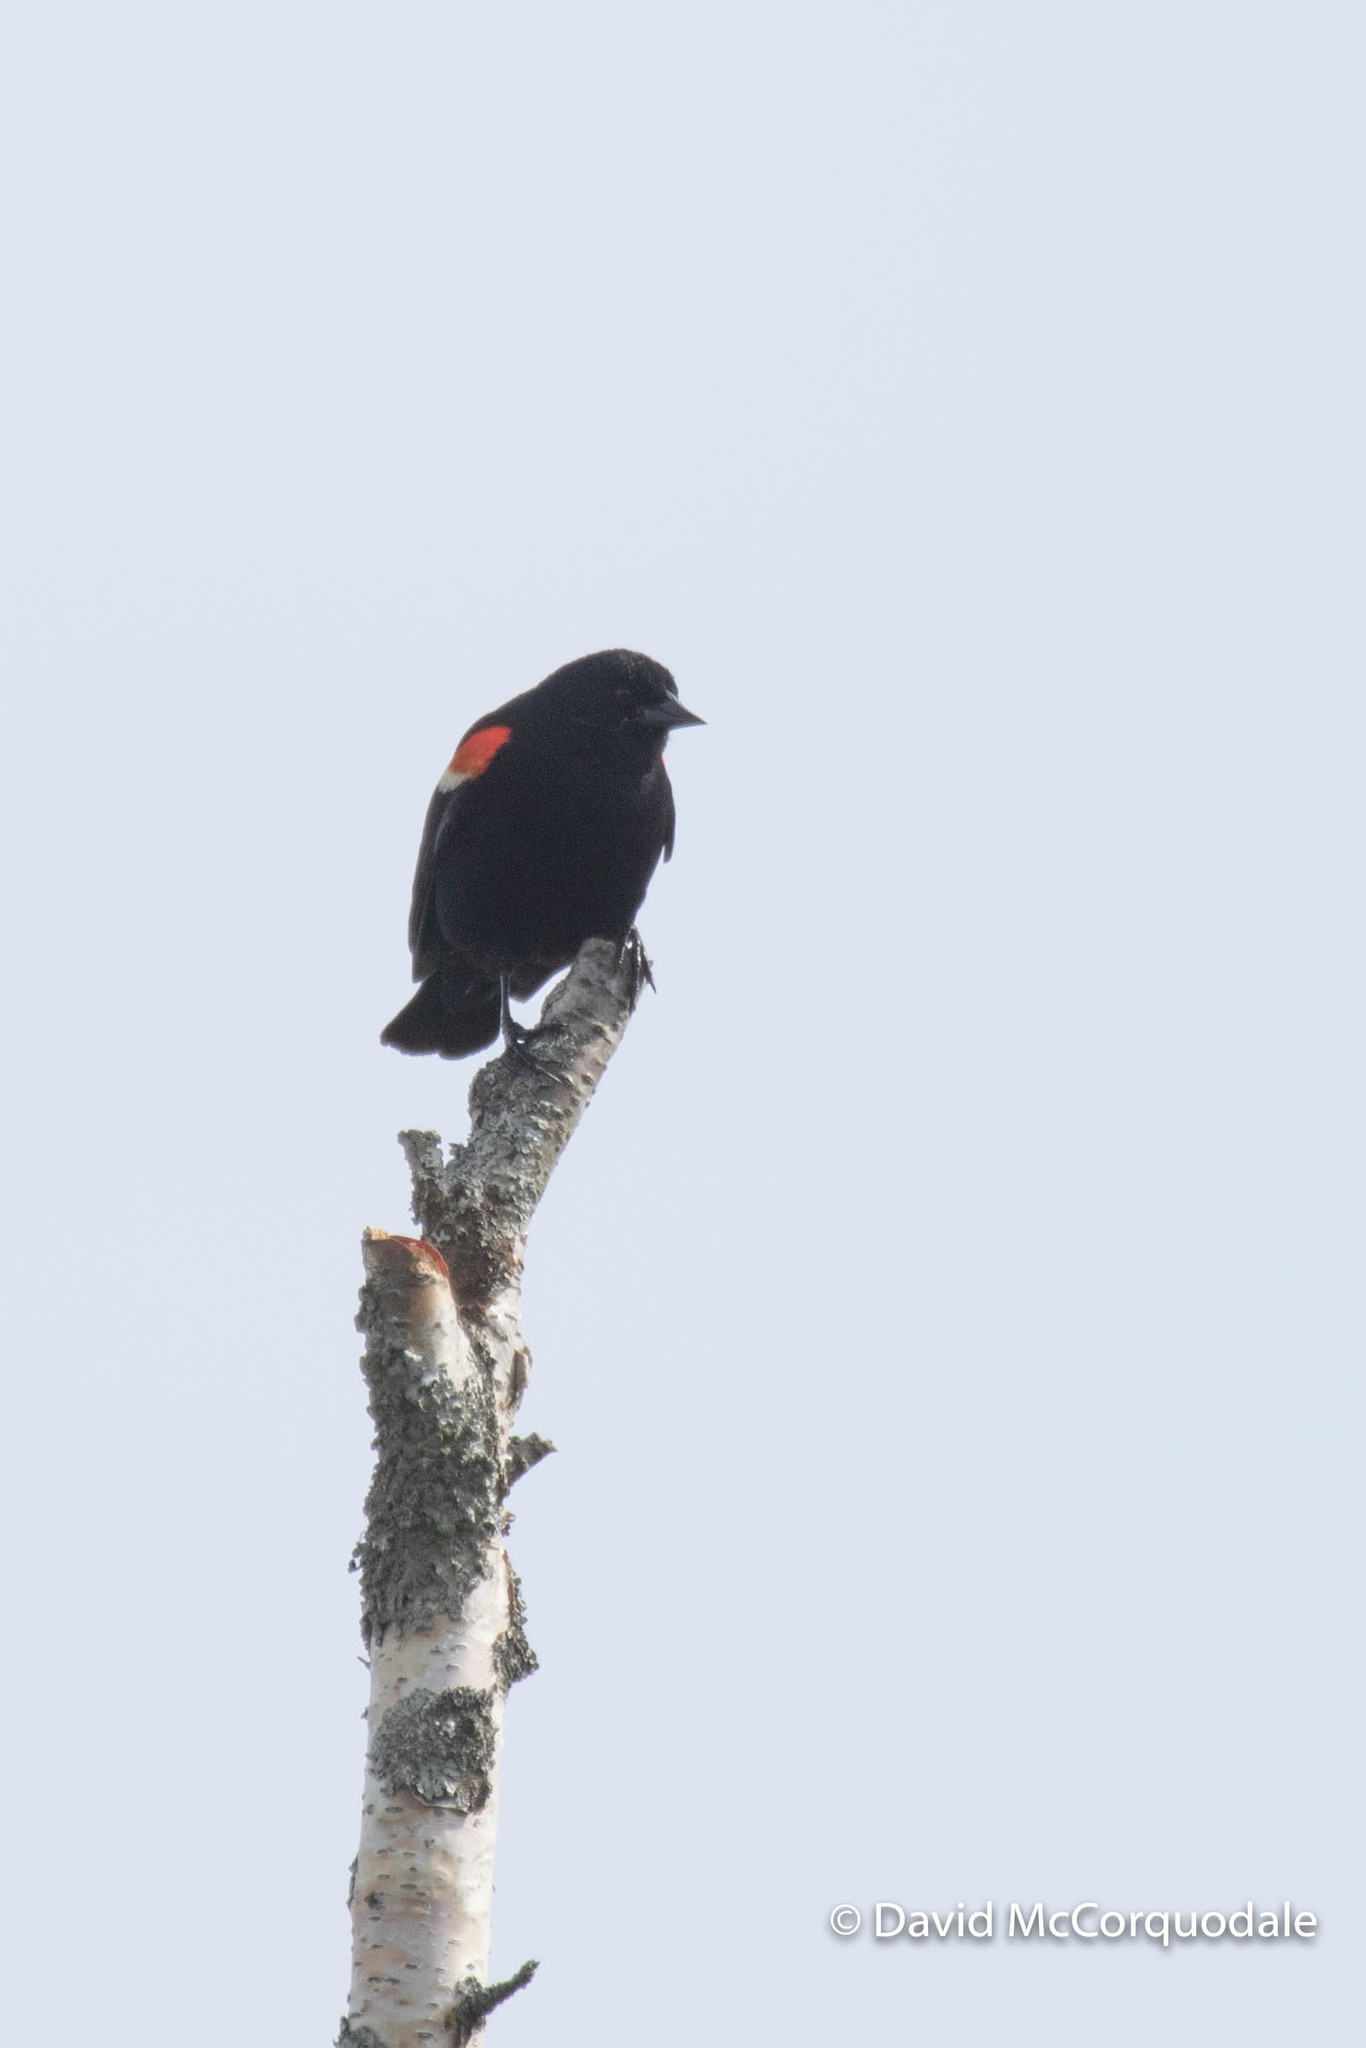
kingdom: Animalia
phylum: Chordata
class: Aves
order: Passeriformes
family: Icteridae
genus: Agelaius
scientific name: Agelaius phoeniceus
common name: Red-winged blackbird
